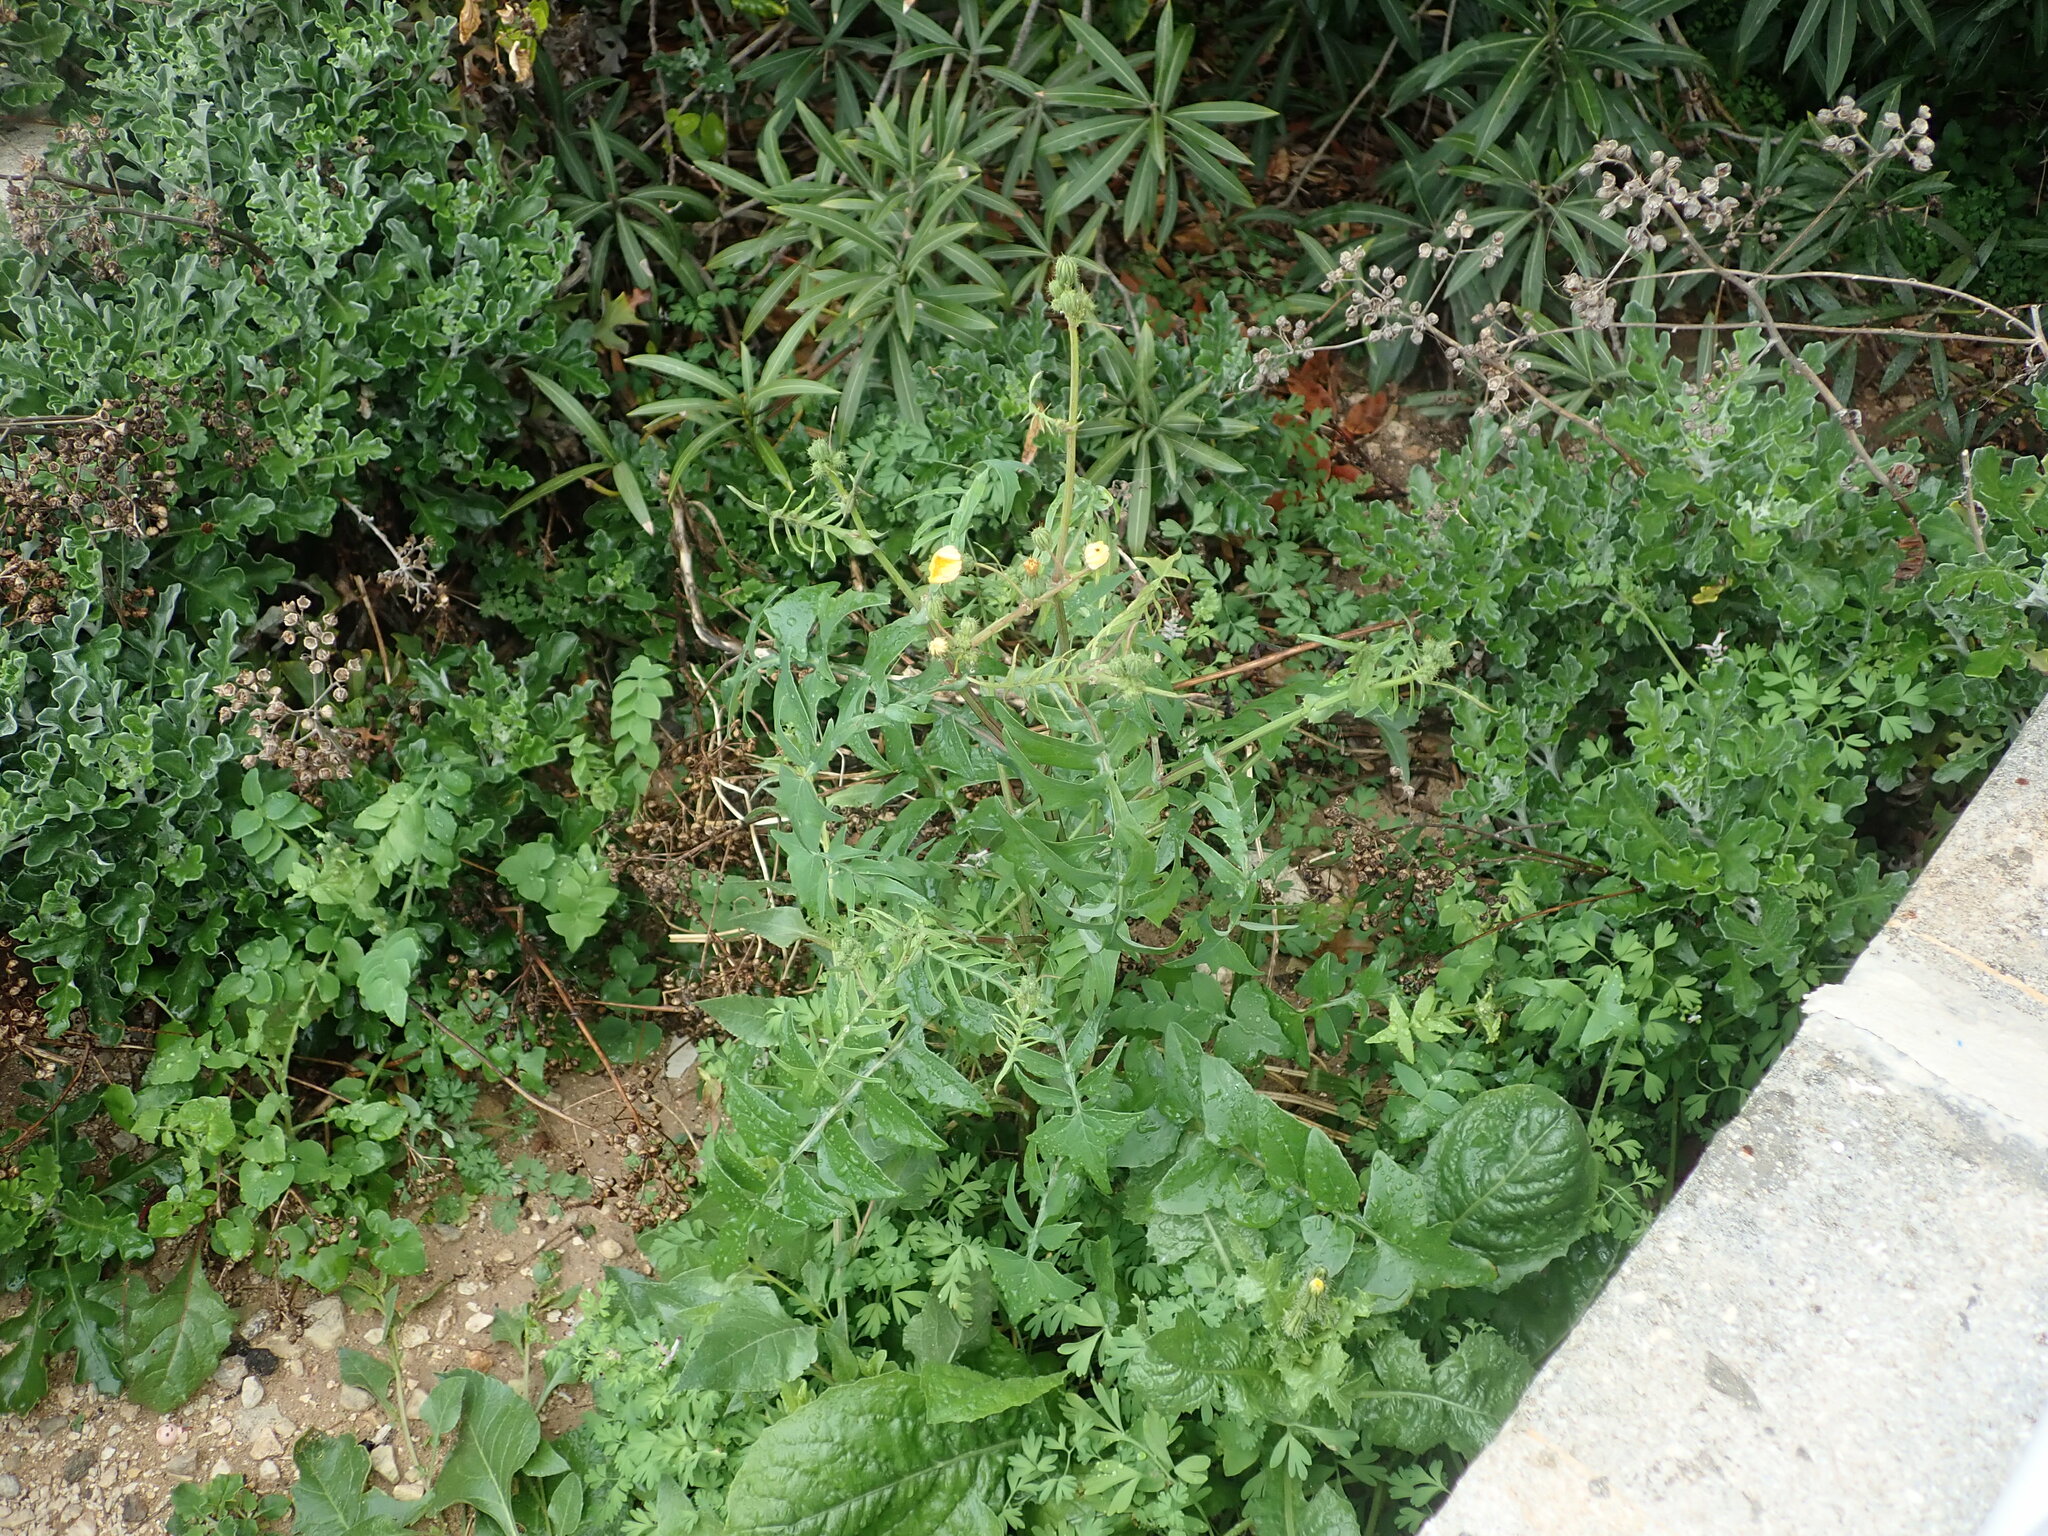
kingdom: Plantae
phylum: Tracheophyta
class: Magnoliopsida
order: Asterales
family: Asteraceae
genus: Sonchus
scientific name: Sonchus tenerrimus
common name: Clammy sowthistle
